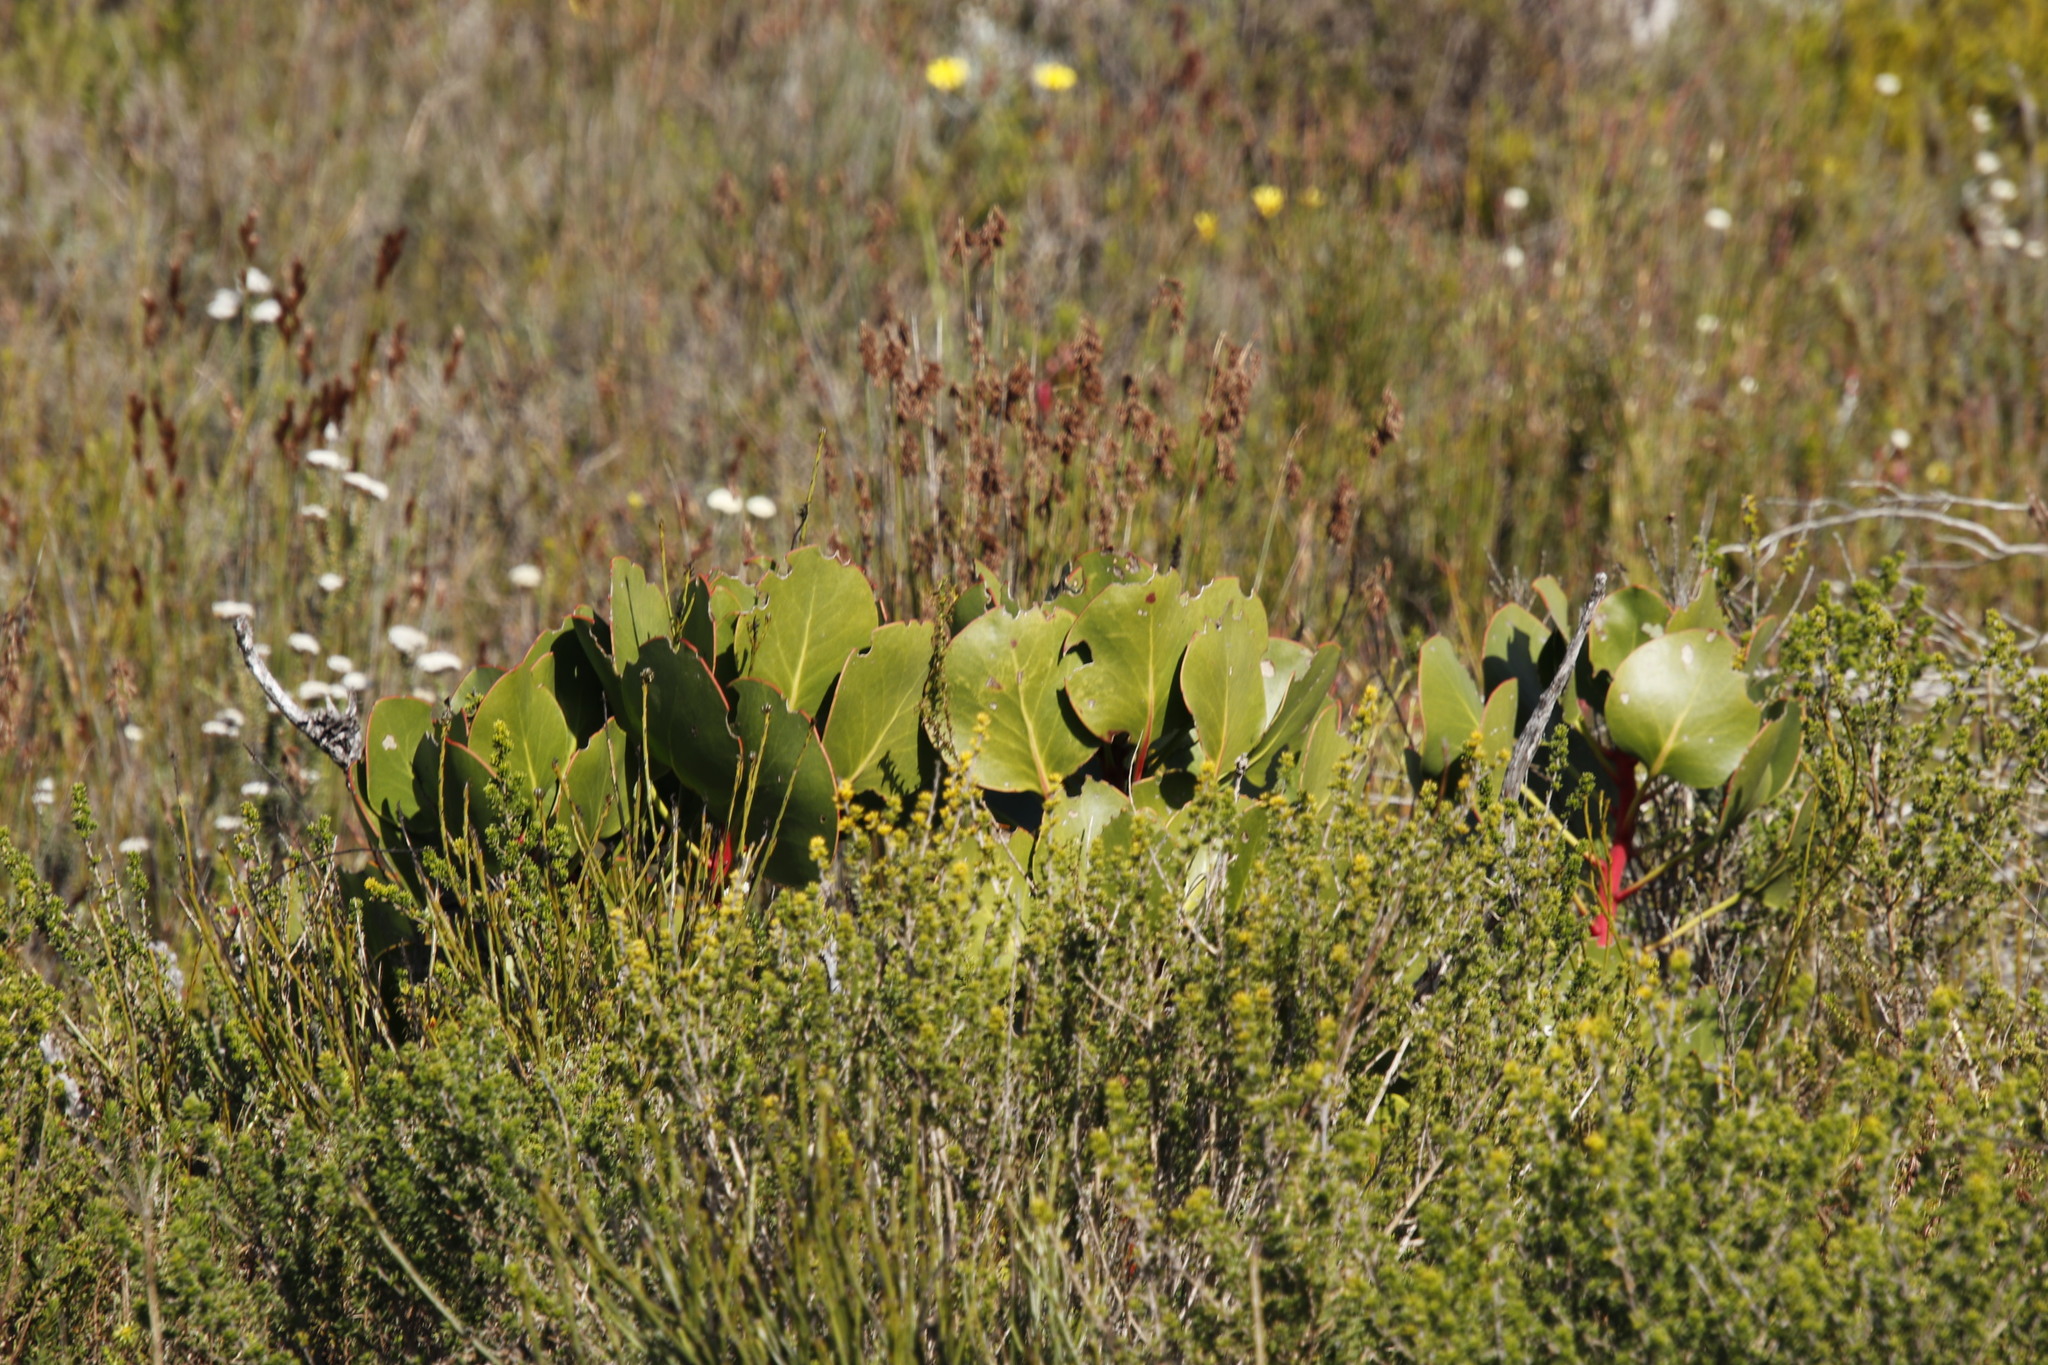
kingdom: Plantae
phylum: Tracheophyta
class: Magnoliopsida
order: Proteales
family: Proteaceae
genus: Protea
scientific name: Protea cynaroides
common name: King protea
